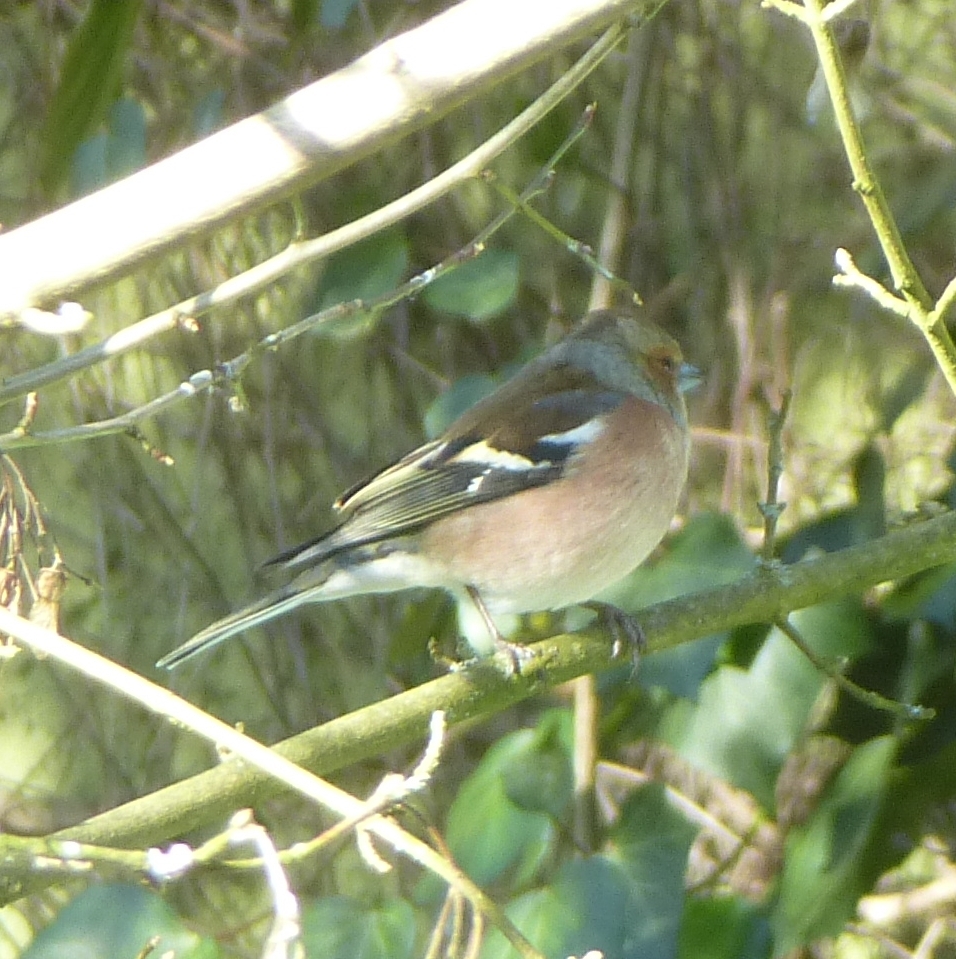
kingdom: Animalia
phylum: Chordata
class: Aves
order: Passeriformes
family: Fringillidae
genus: Fringilla
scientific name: Fringilla coelebs
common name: Common chaffinch
